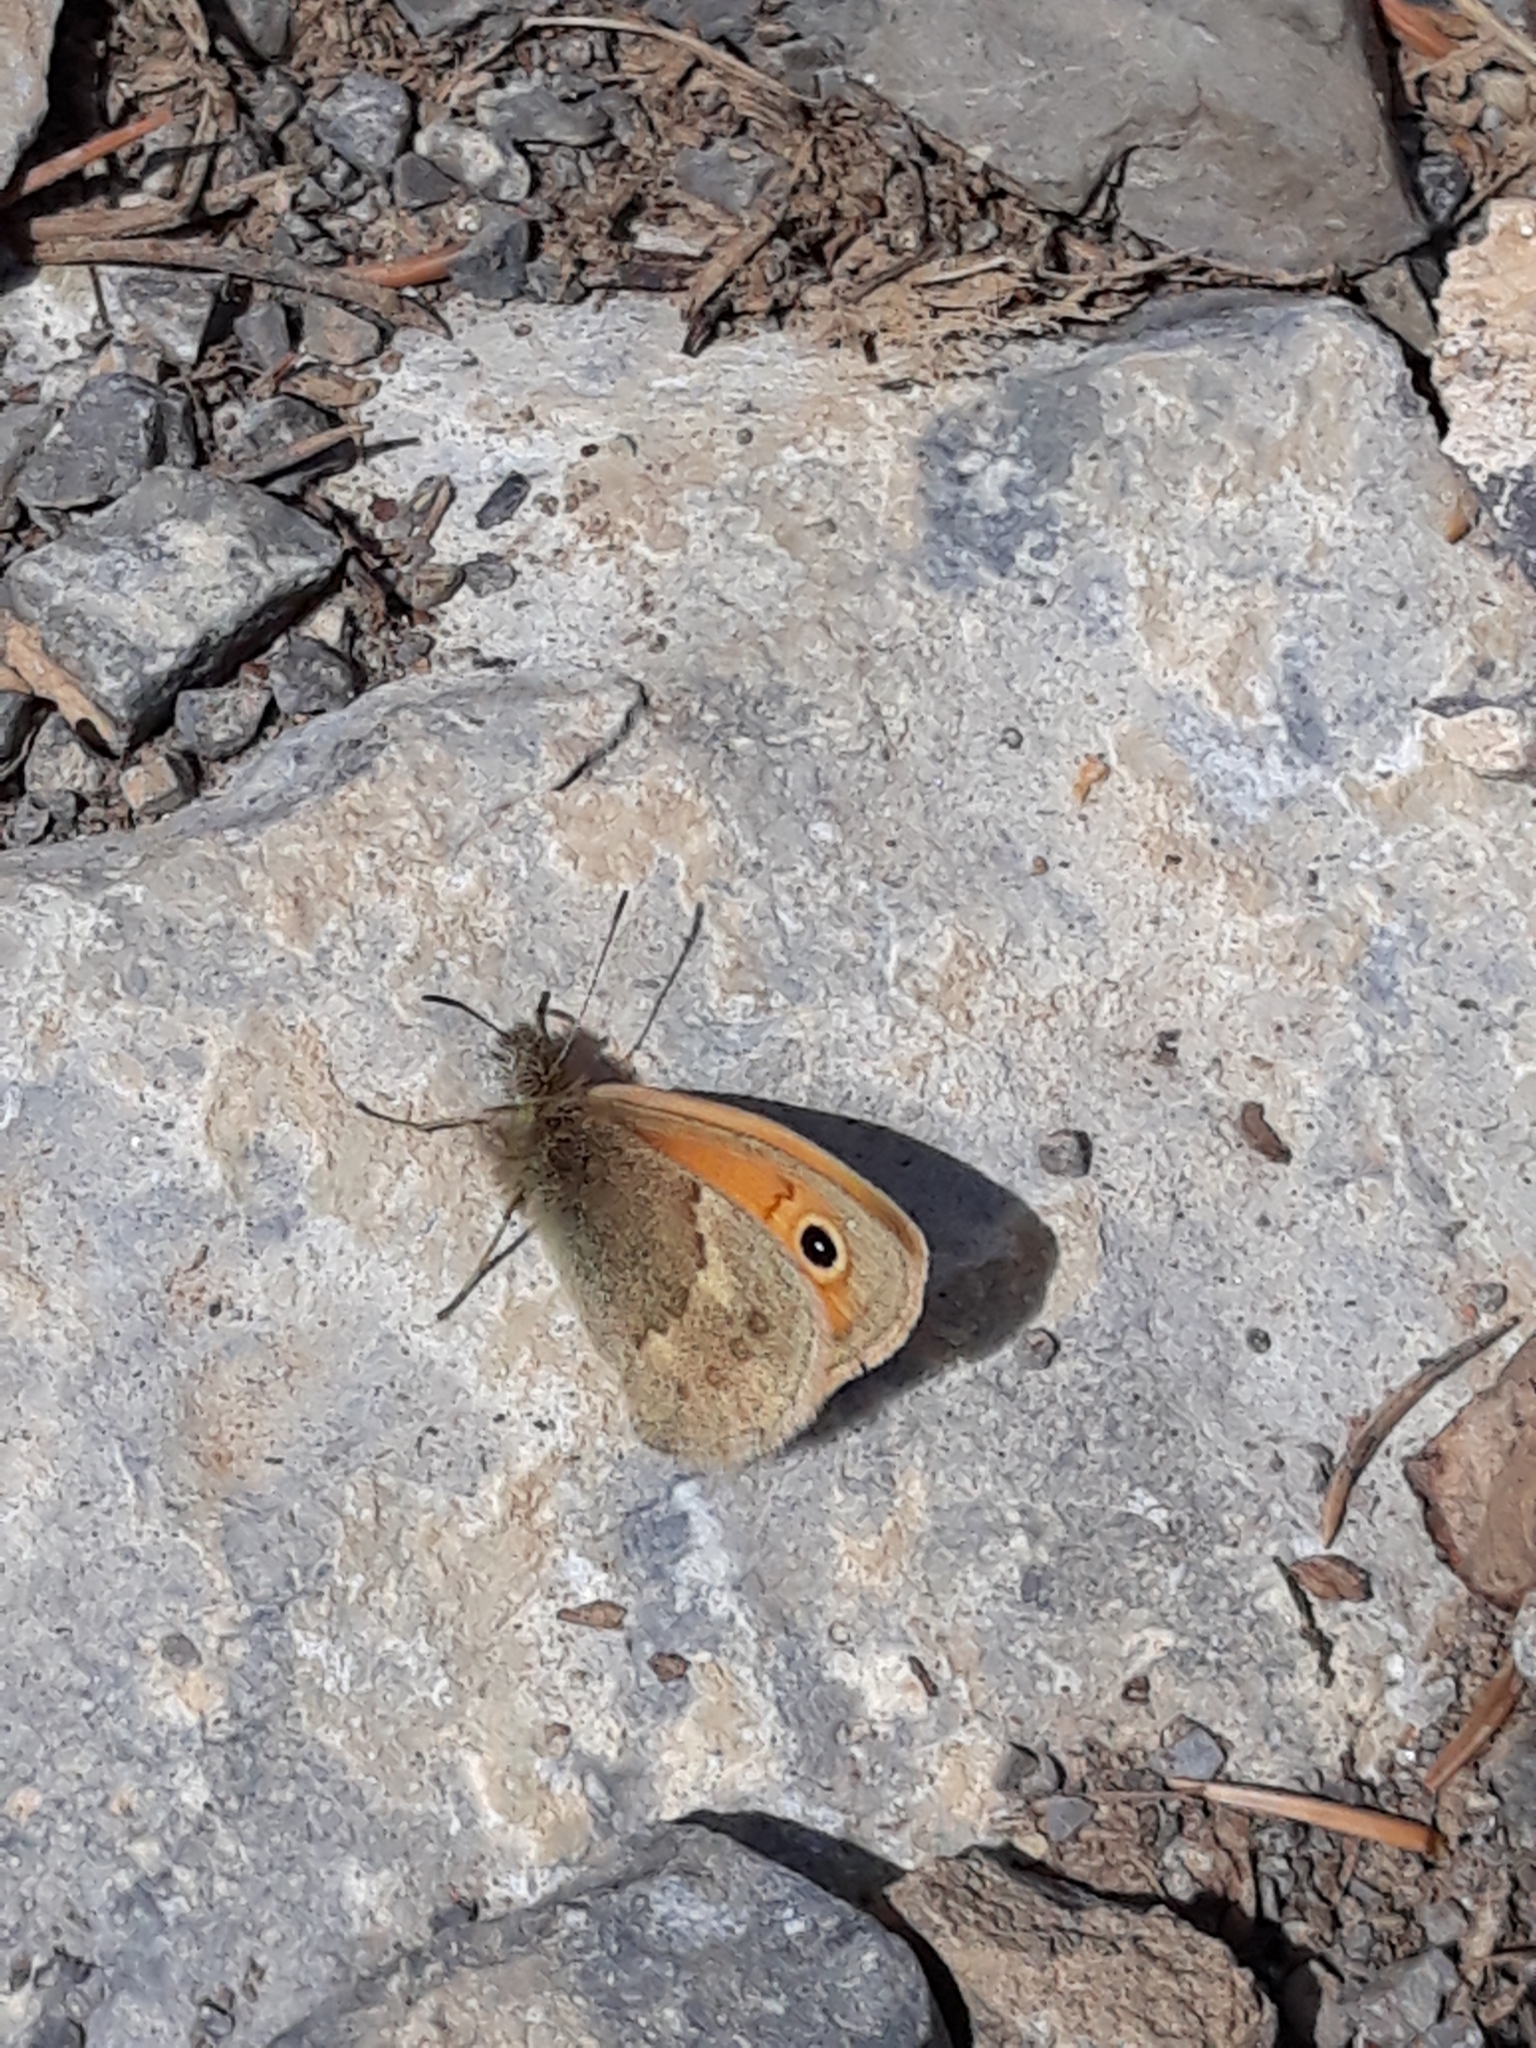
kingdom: Animalia
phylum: Arthropoda
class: Insecta
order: Lepidoptera
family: Nymphalidae
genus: Coenonympha
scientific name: Coenonympha pamphilus
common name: Small heath
